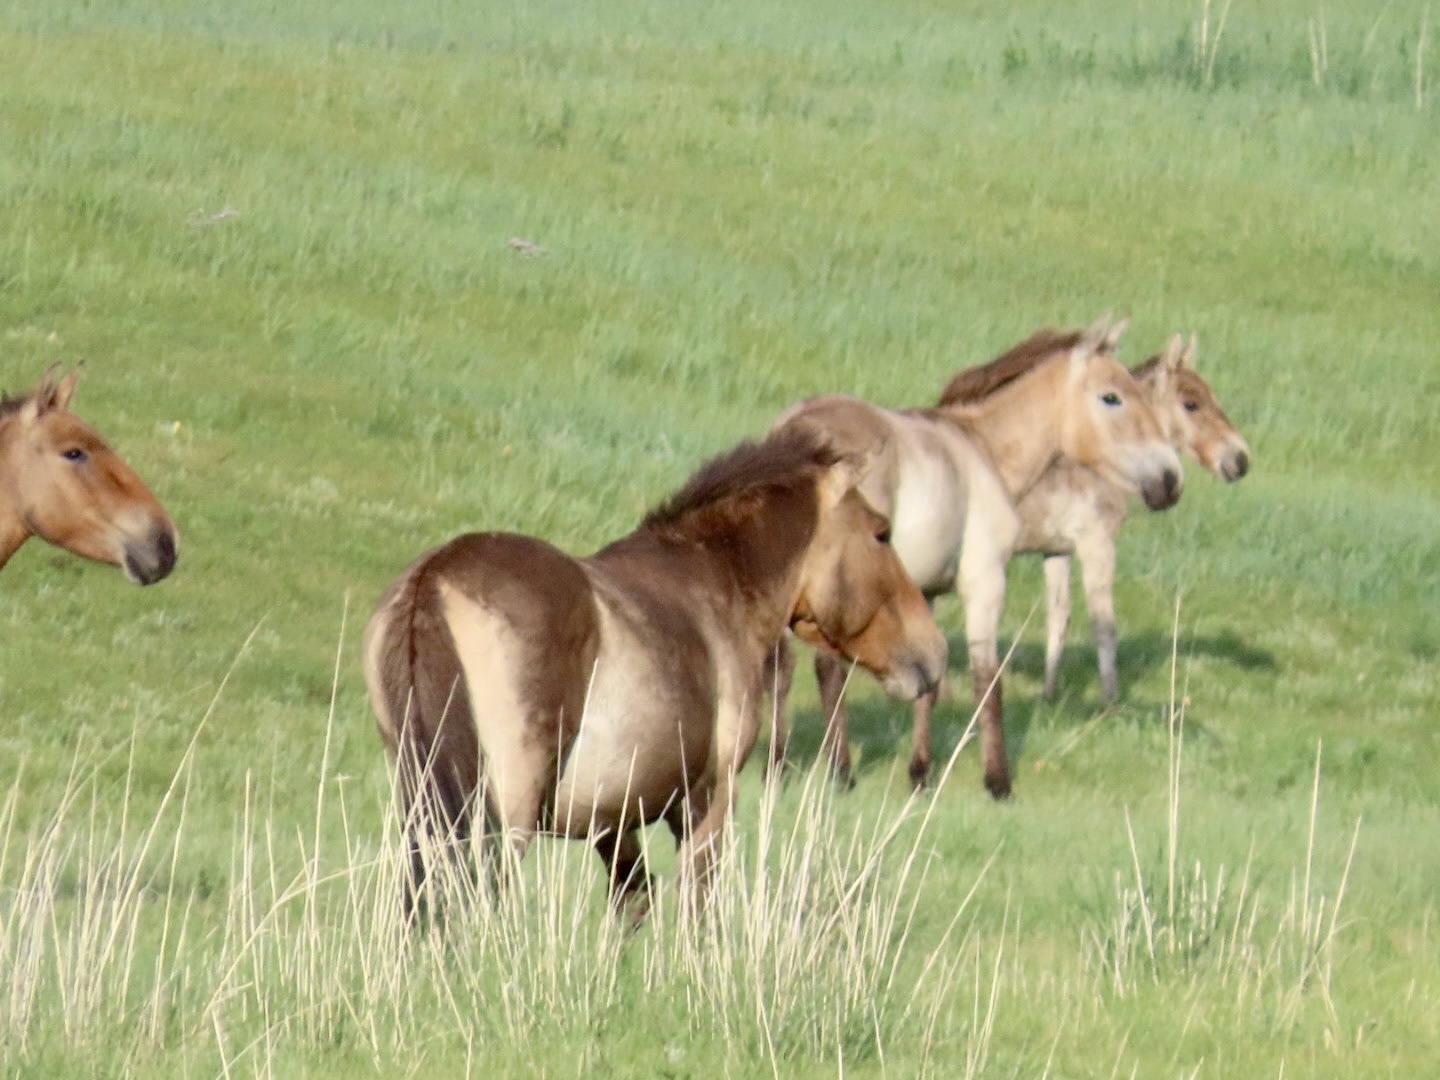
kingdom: Animalia
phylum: Chordata
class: Mammalia
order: Perissodactyla
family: Equidae
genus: Equus
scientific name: Equus przewalskii
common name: Przewalski's horse
